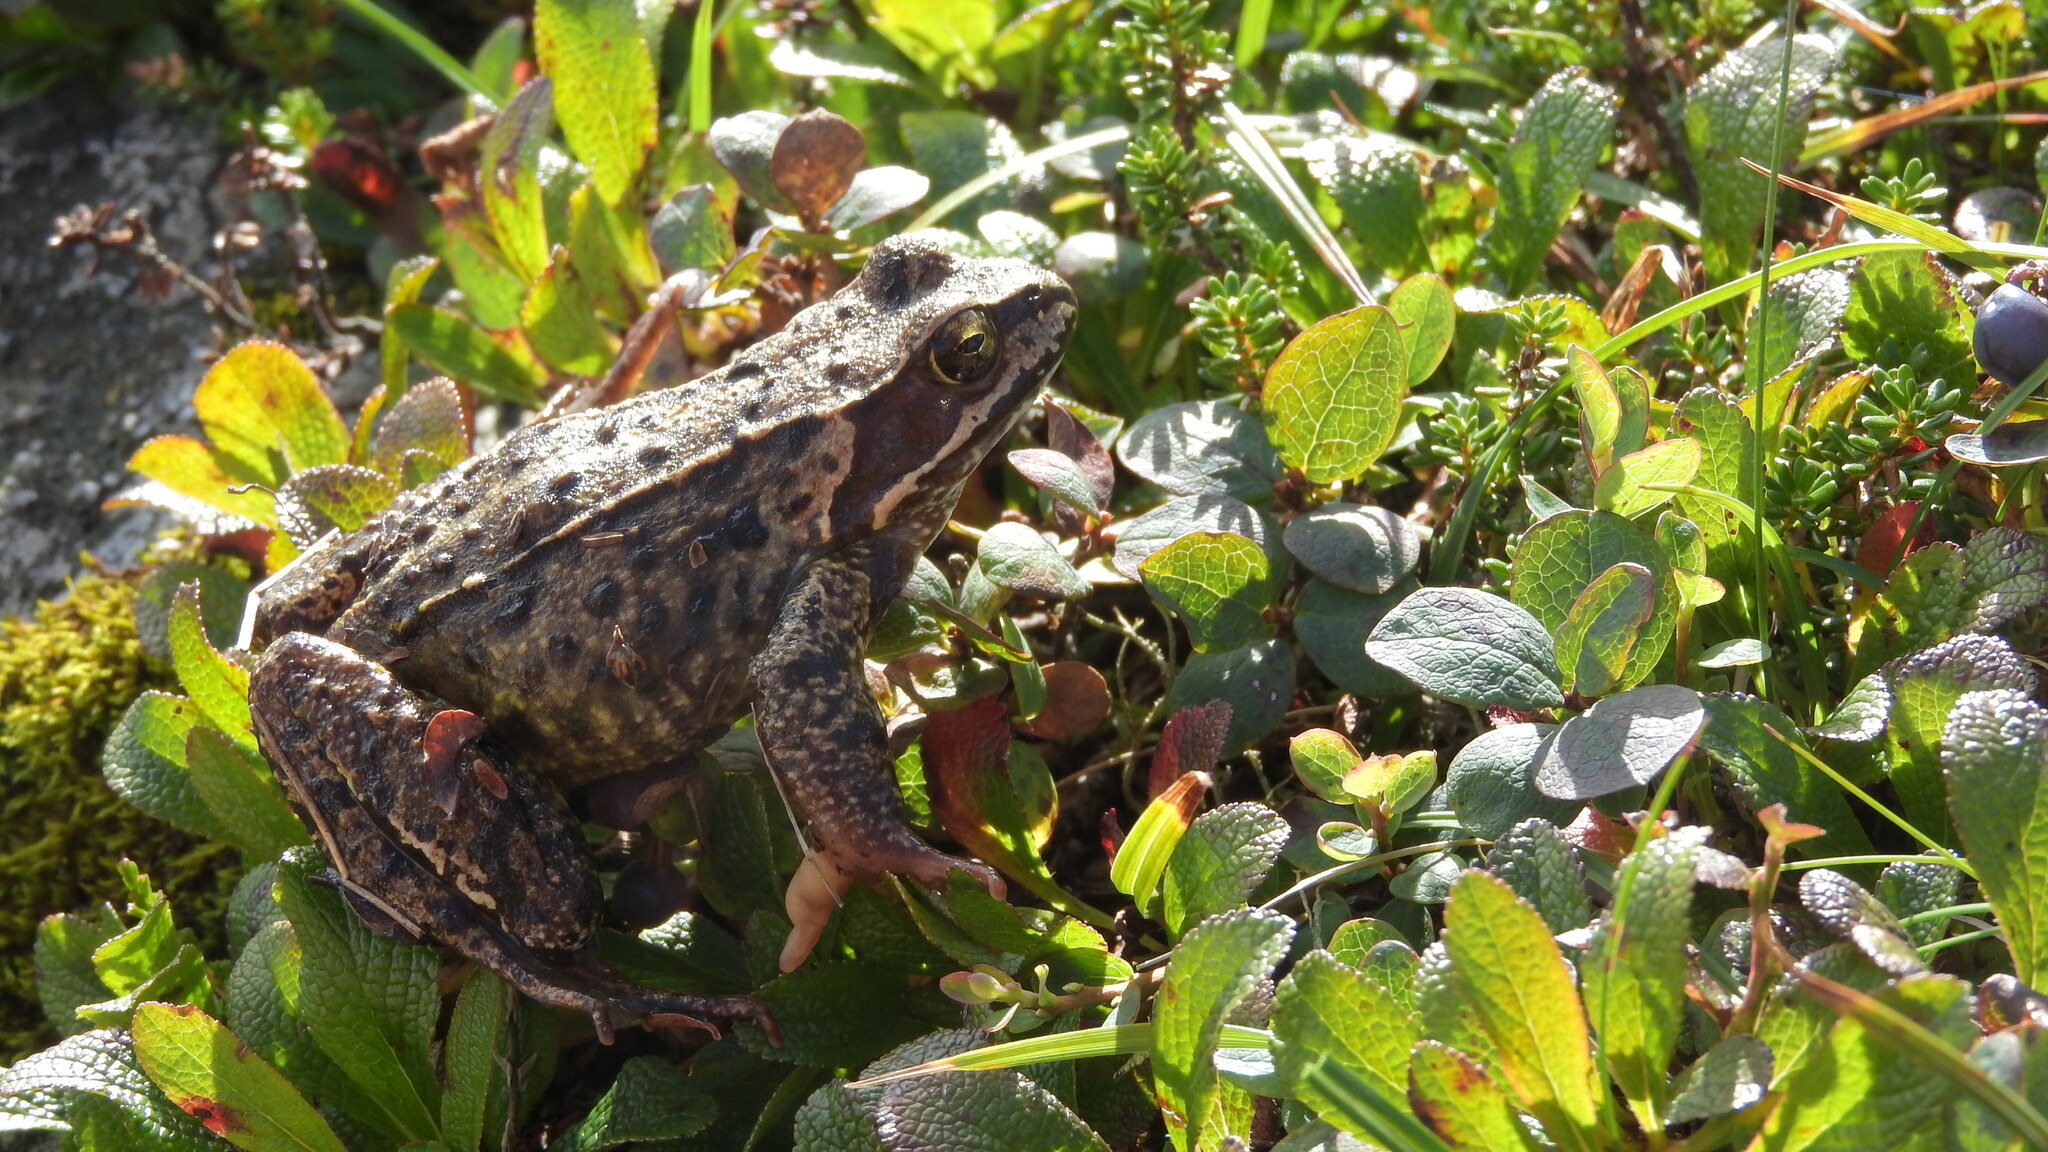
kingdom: Animalia
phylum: Chordata
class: Amphibia
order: Anura
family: Ranidae
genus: Rana
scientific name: Rana temporaria
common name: Common frog
